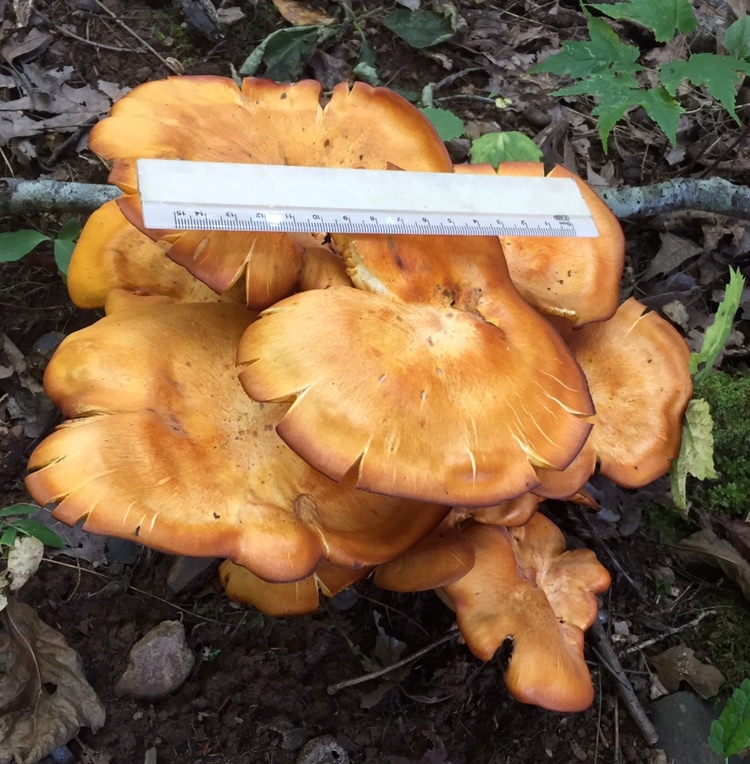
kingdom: Fungi
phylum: Basidiomycota
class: Agaricomycetes
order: Agaricales
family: Omphalotaceae
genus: Omphalotus
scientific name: Omphalotus illudens
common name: Jack o lantern
